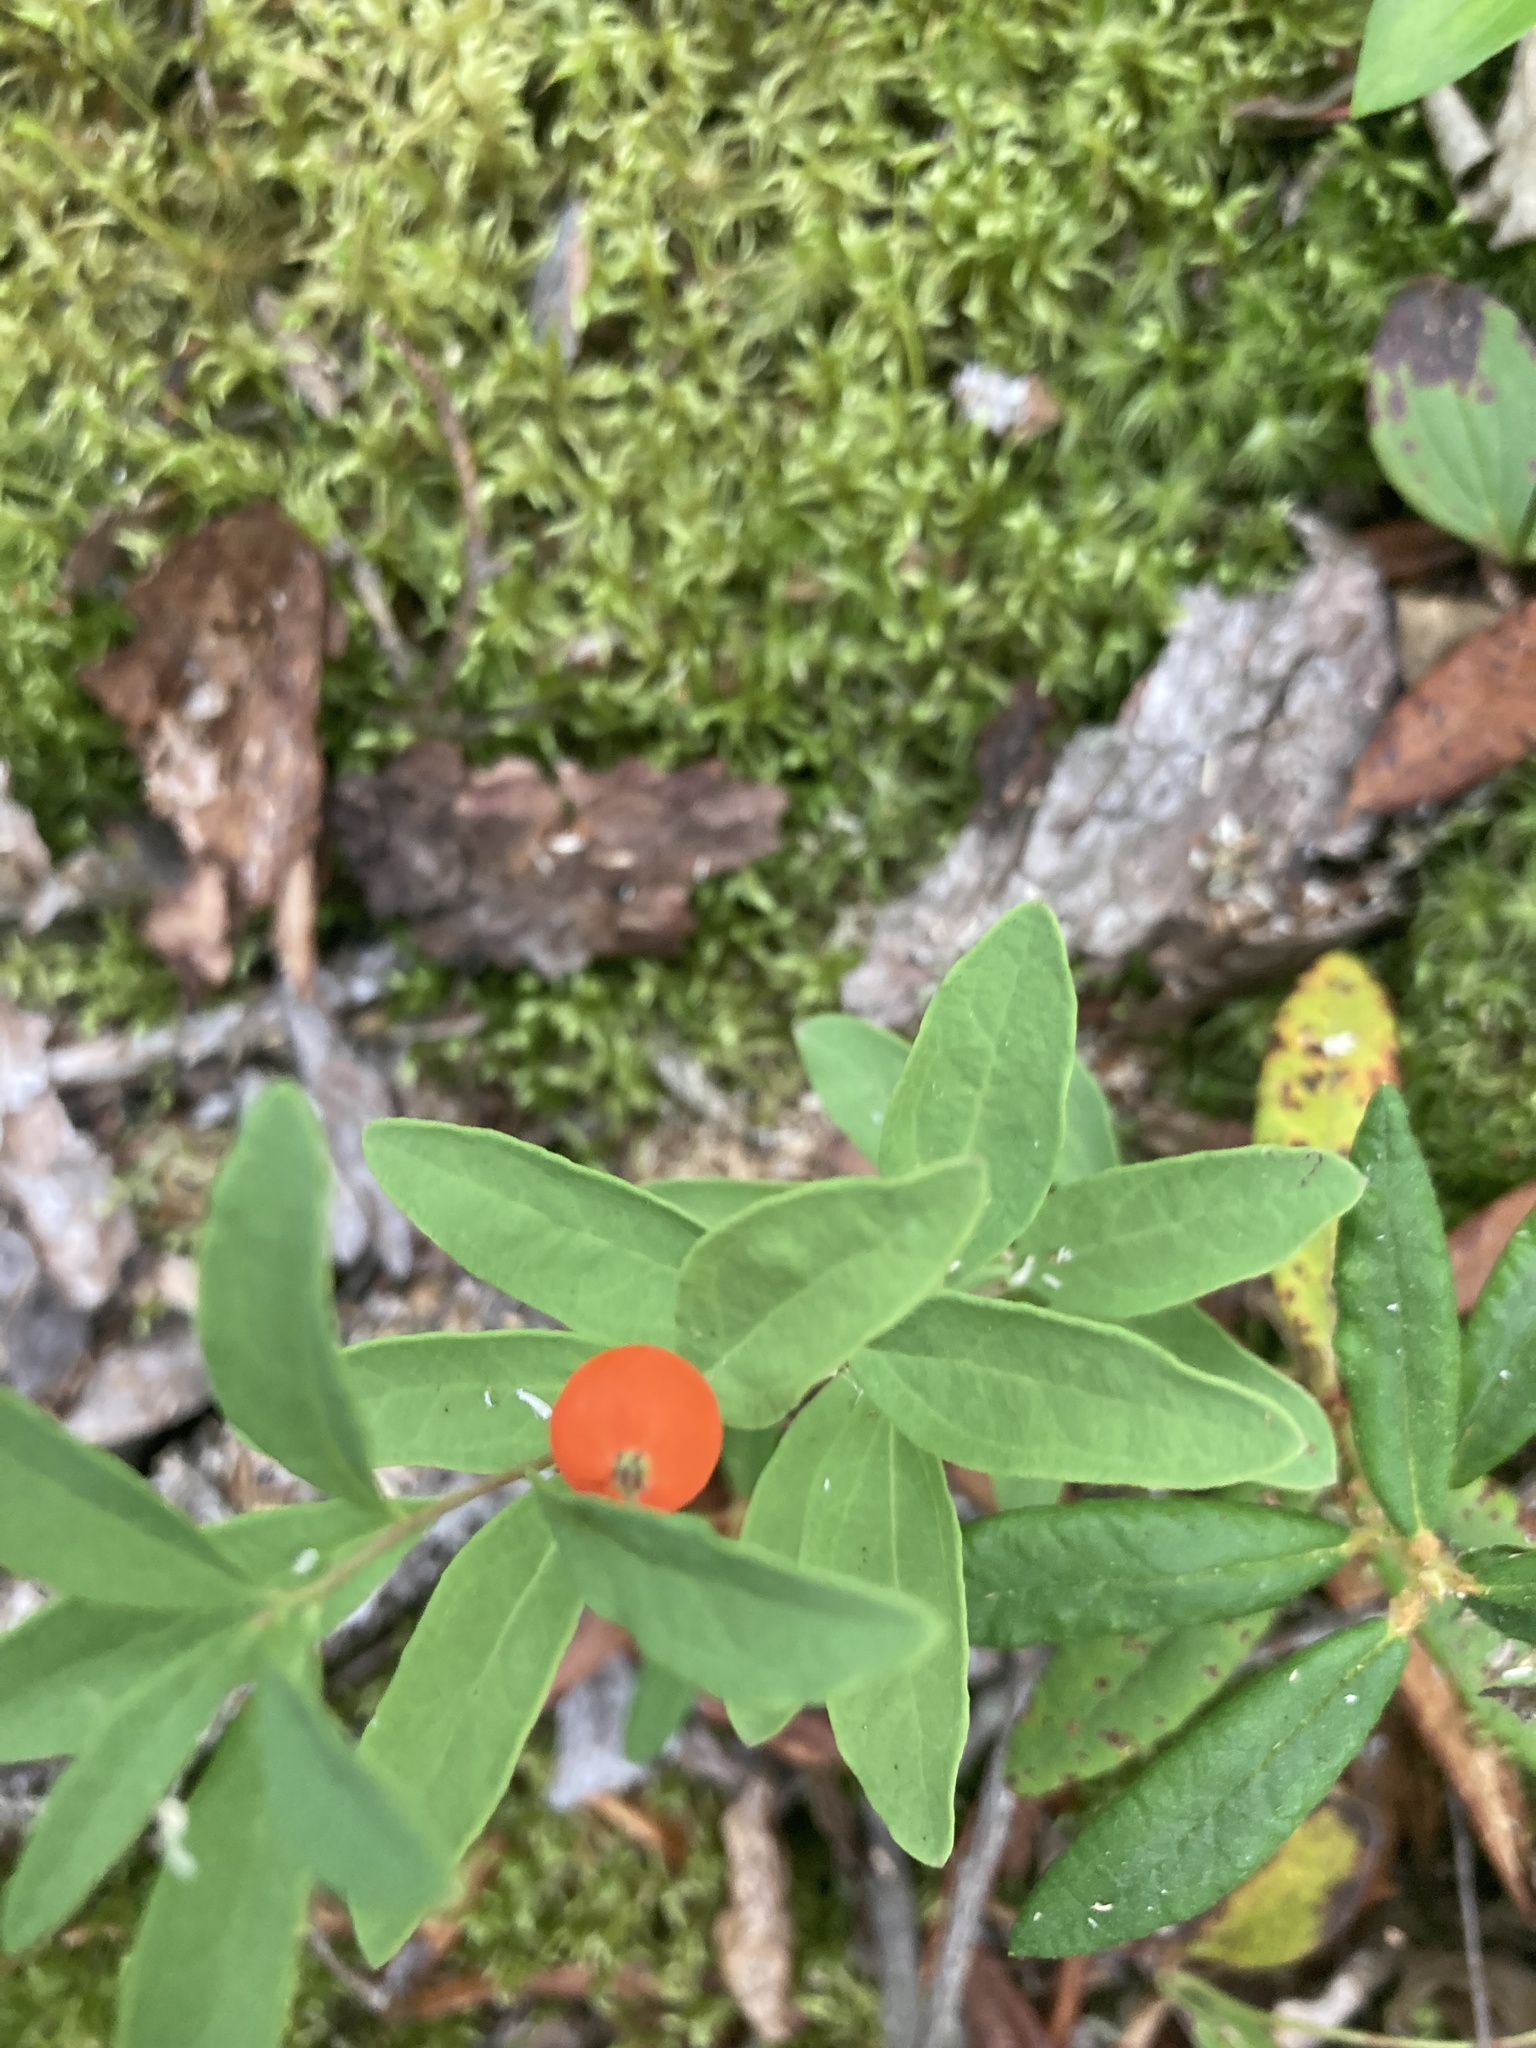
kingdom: Plantae
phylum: Tracheophyta
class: Magnoliopsida
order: Santalales
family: Comandraceae
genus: Geocaulon
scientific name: Geocaulon lividum
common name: Earthberry
